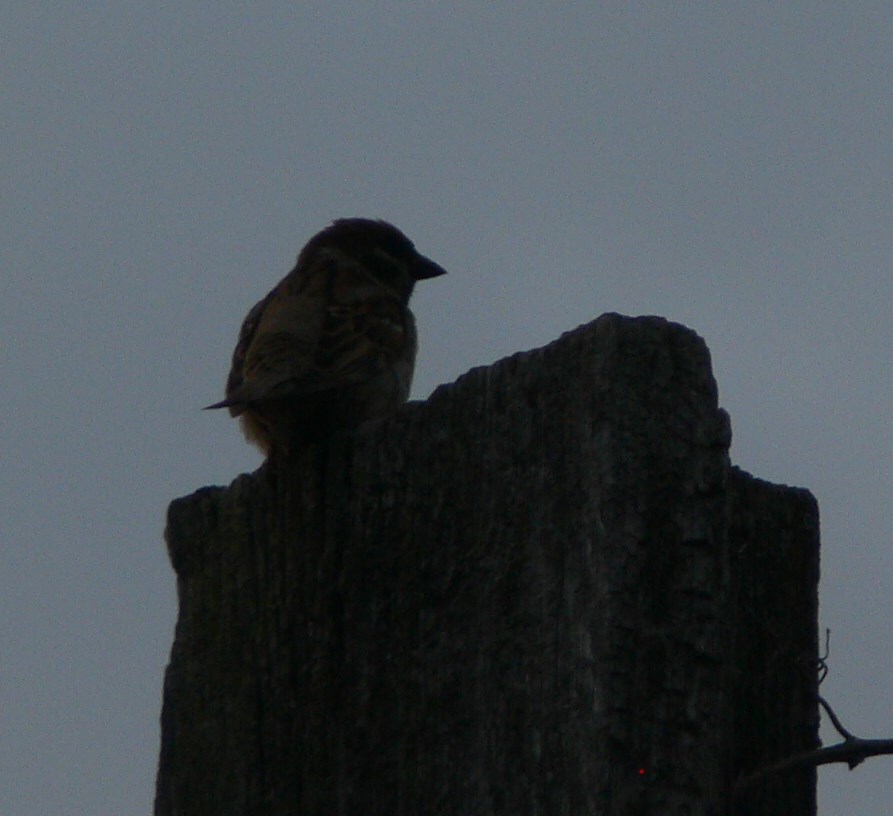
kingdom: Animalia
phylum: Chordata
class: Aves
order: Passeriformes
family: Passeridae
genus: Passer
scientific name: Passer montanus
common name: Eurasian tree sparrow
